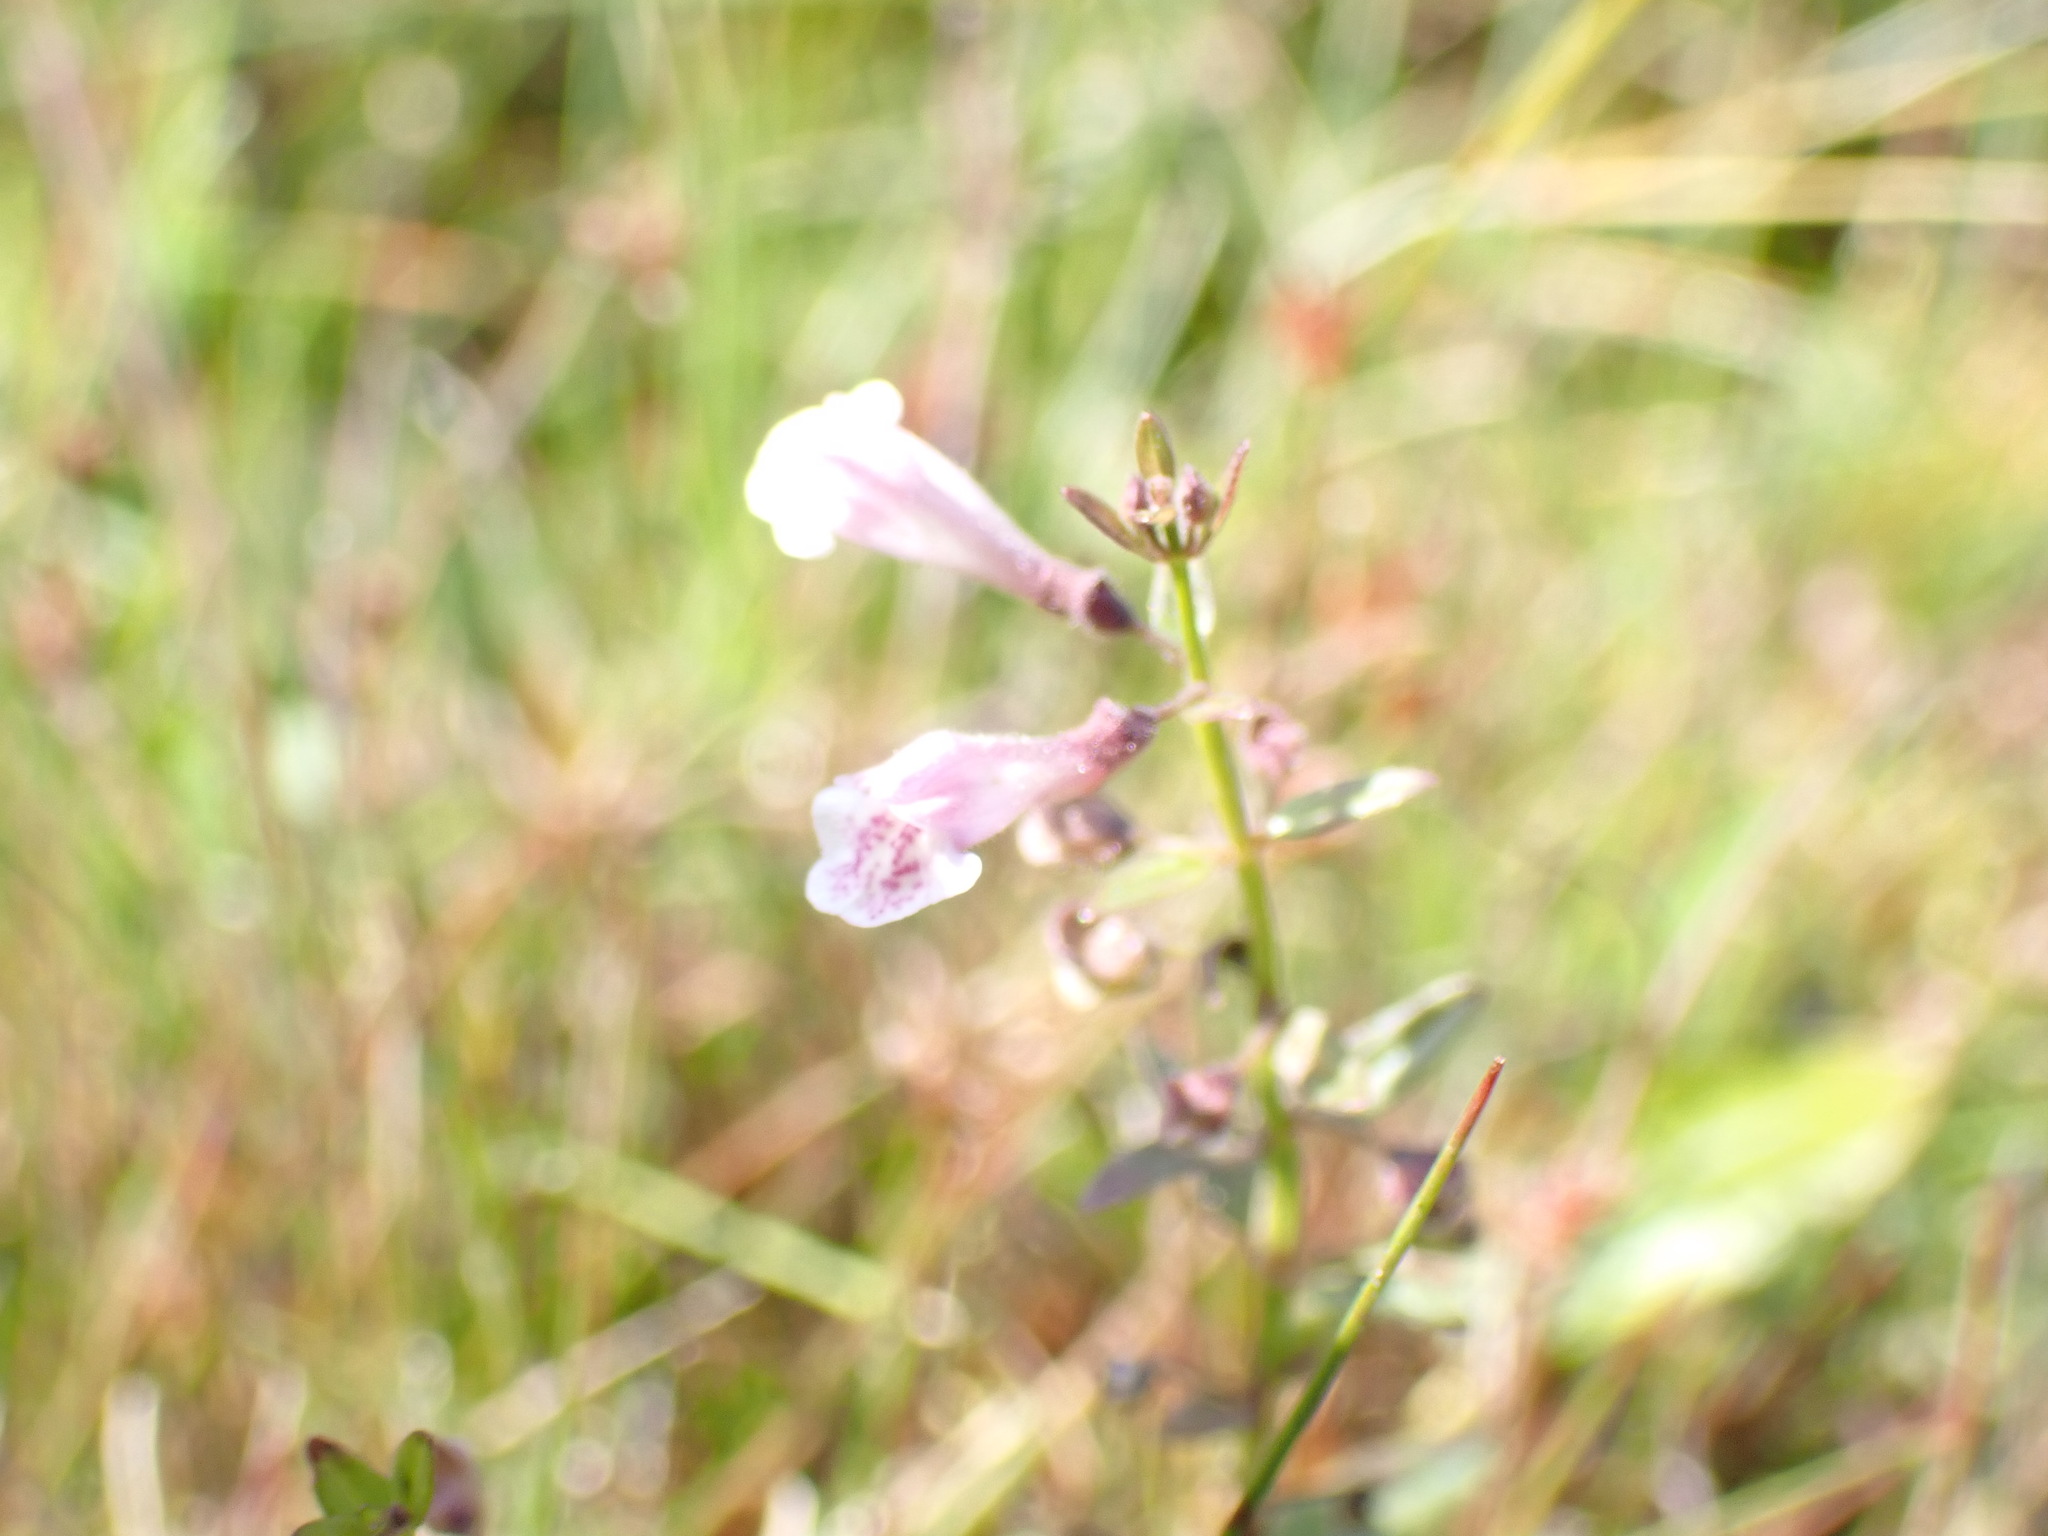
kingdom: Plantae
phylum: Tracheophyta
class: Magnoliopsida
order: Lamiales
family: Lamiaceae
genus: Scutellaria
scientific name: Scutellaria minor
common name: Lesser skullcap
